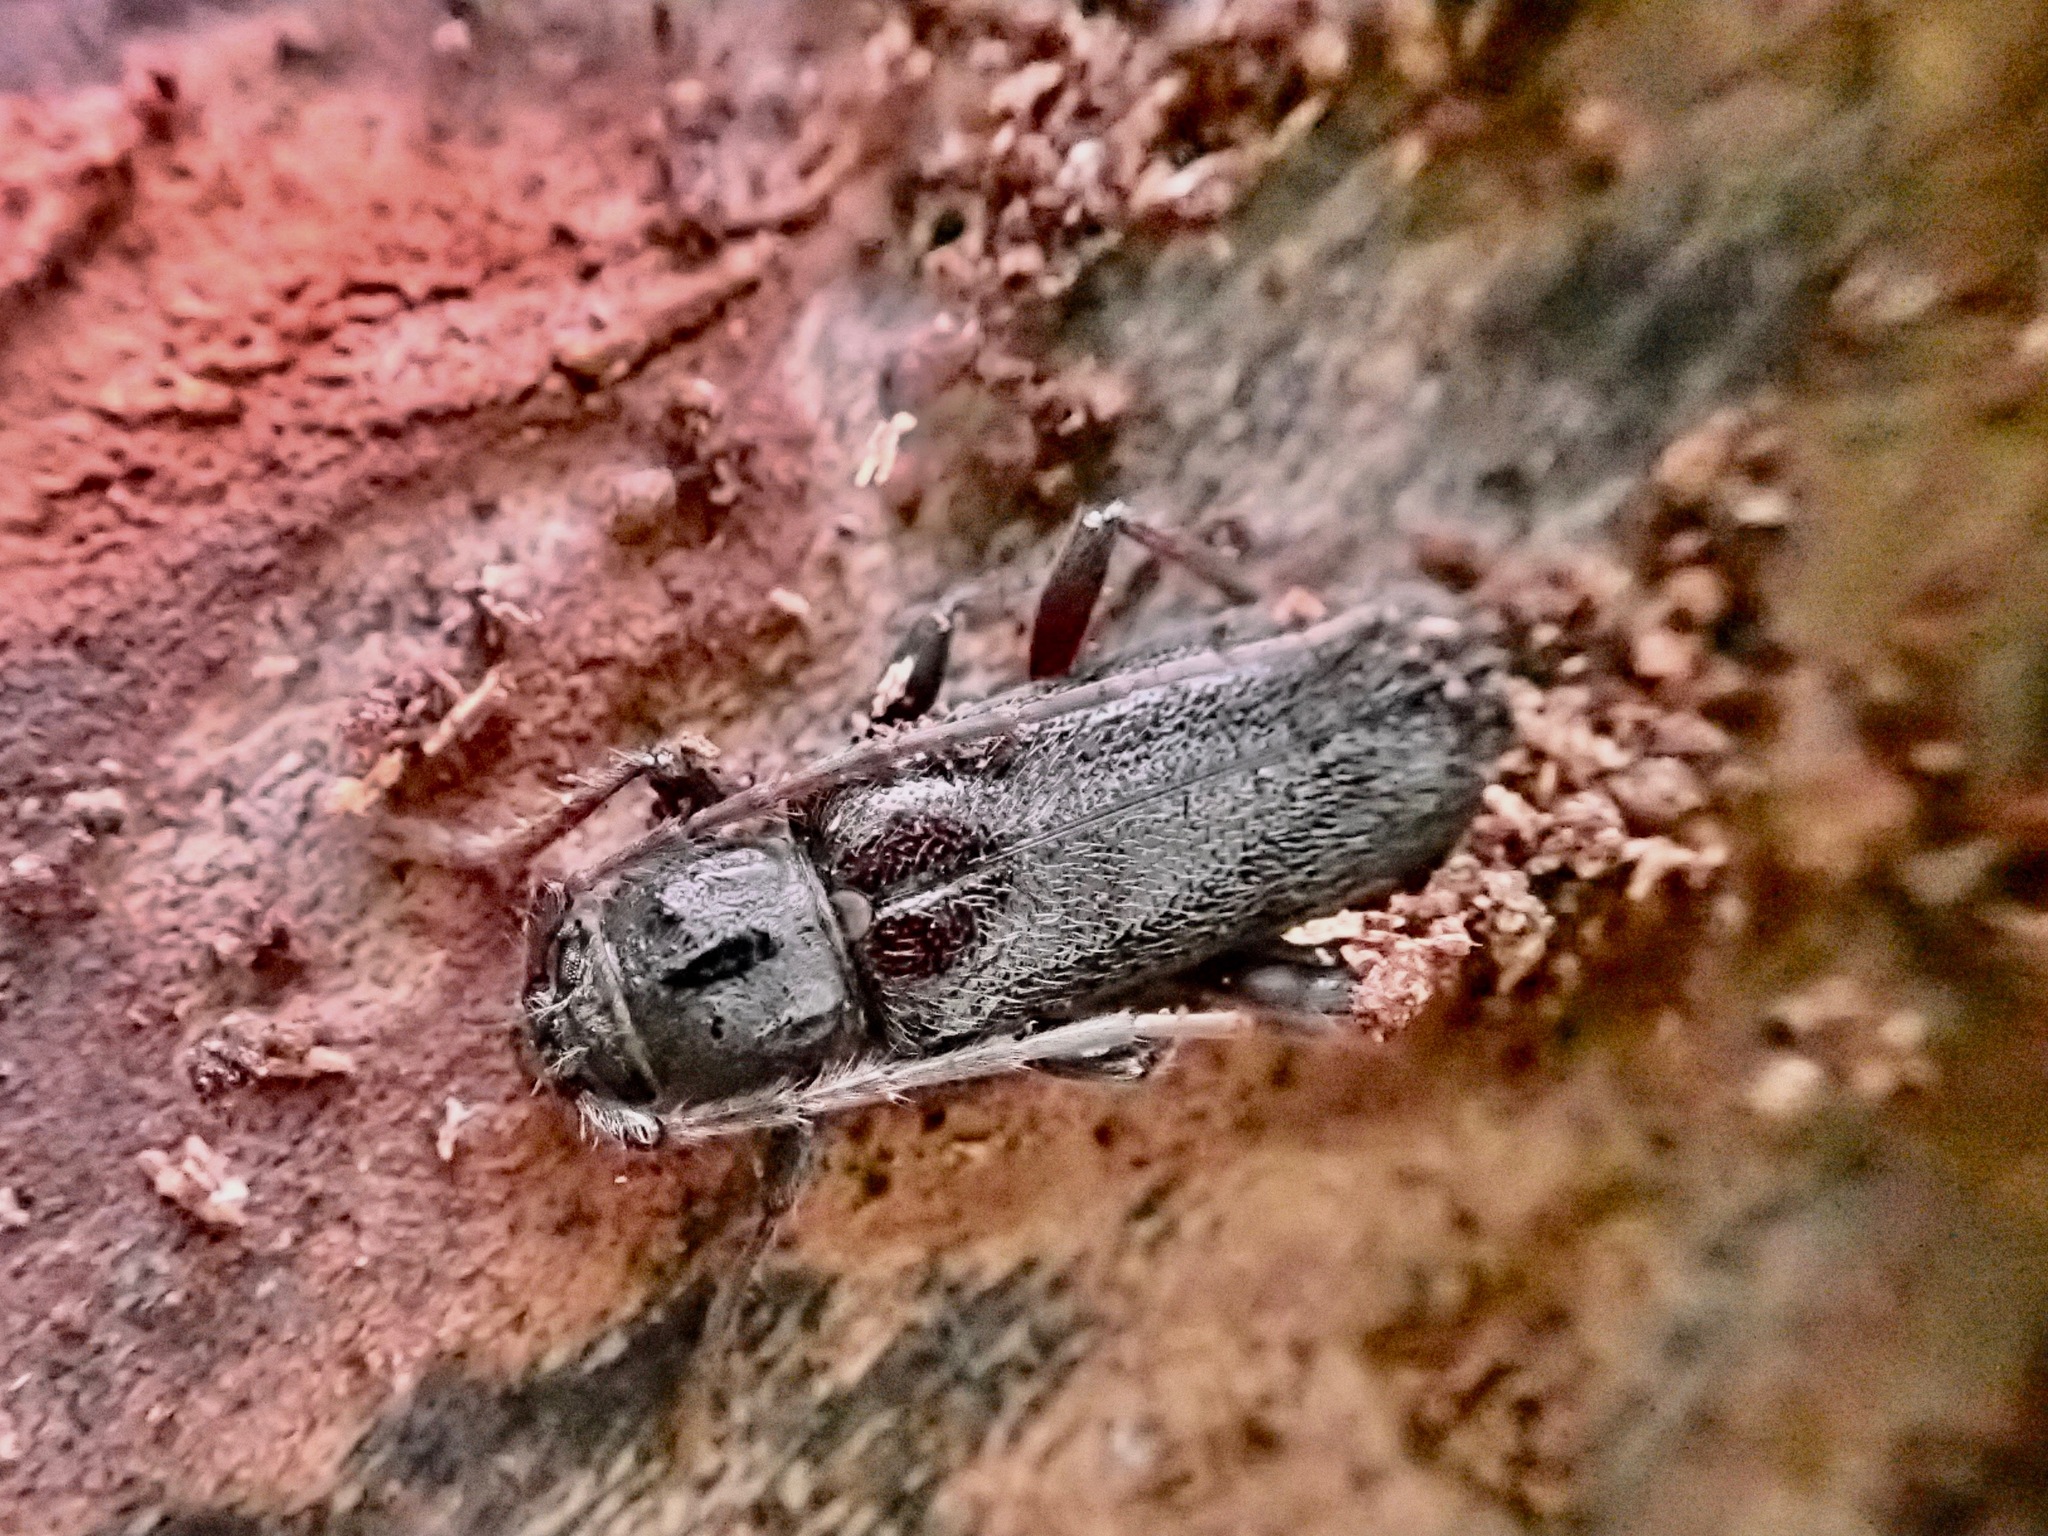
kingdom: Animalia
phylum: Arthropoda
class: Insecta
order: Coleoptera
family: Cerambycidae
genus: Liogramma
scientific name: Liogramma zelandica
